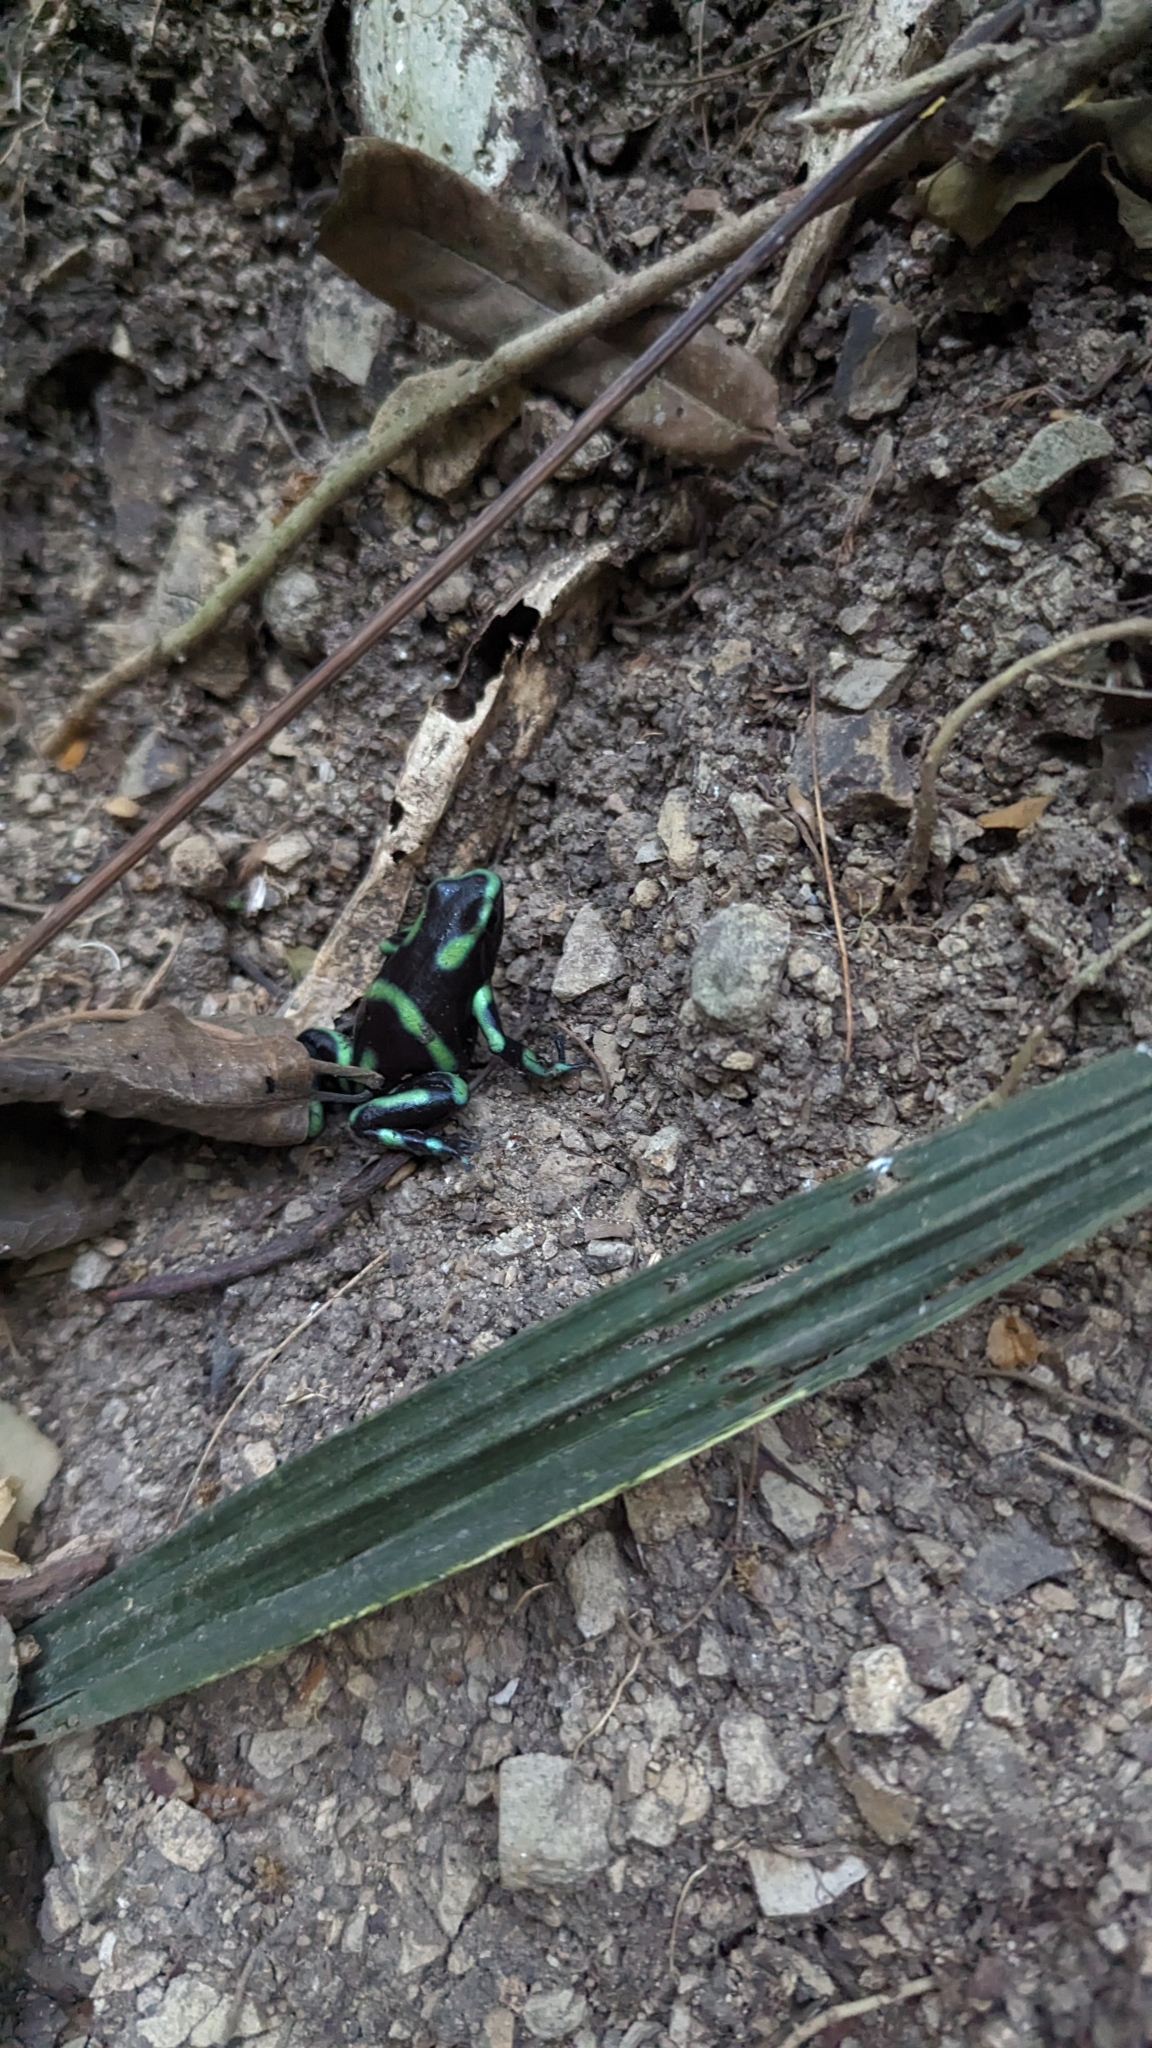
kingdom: Animalia
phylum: Chordata
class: Amphibia
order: Anura
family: Dendrobatidae
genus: Dendrobates
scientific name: Dendrobates auratus
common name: Green and black poison dart frog
